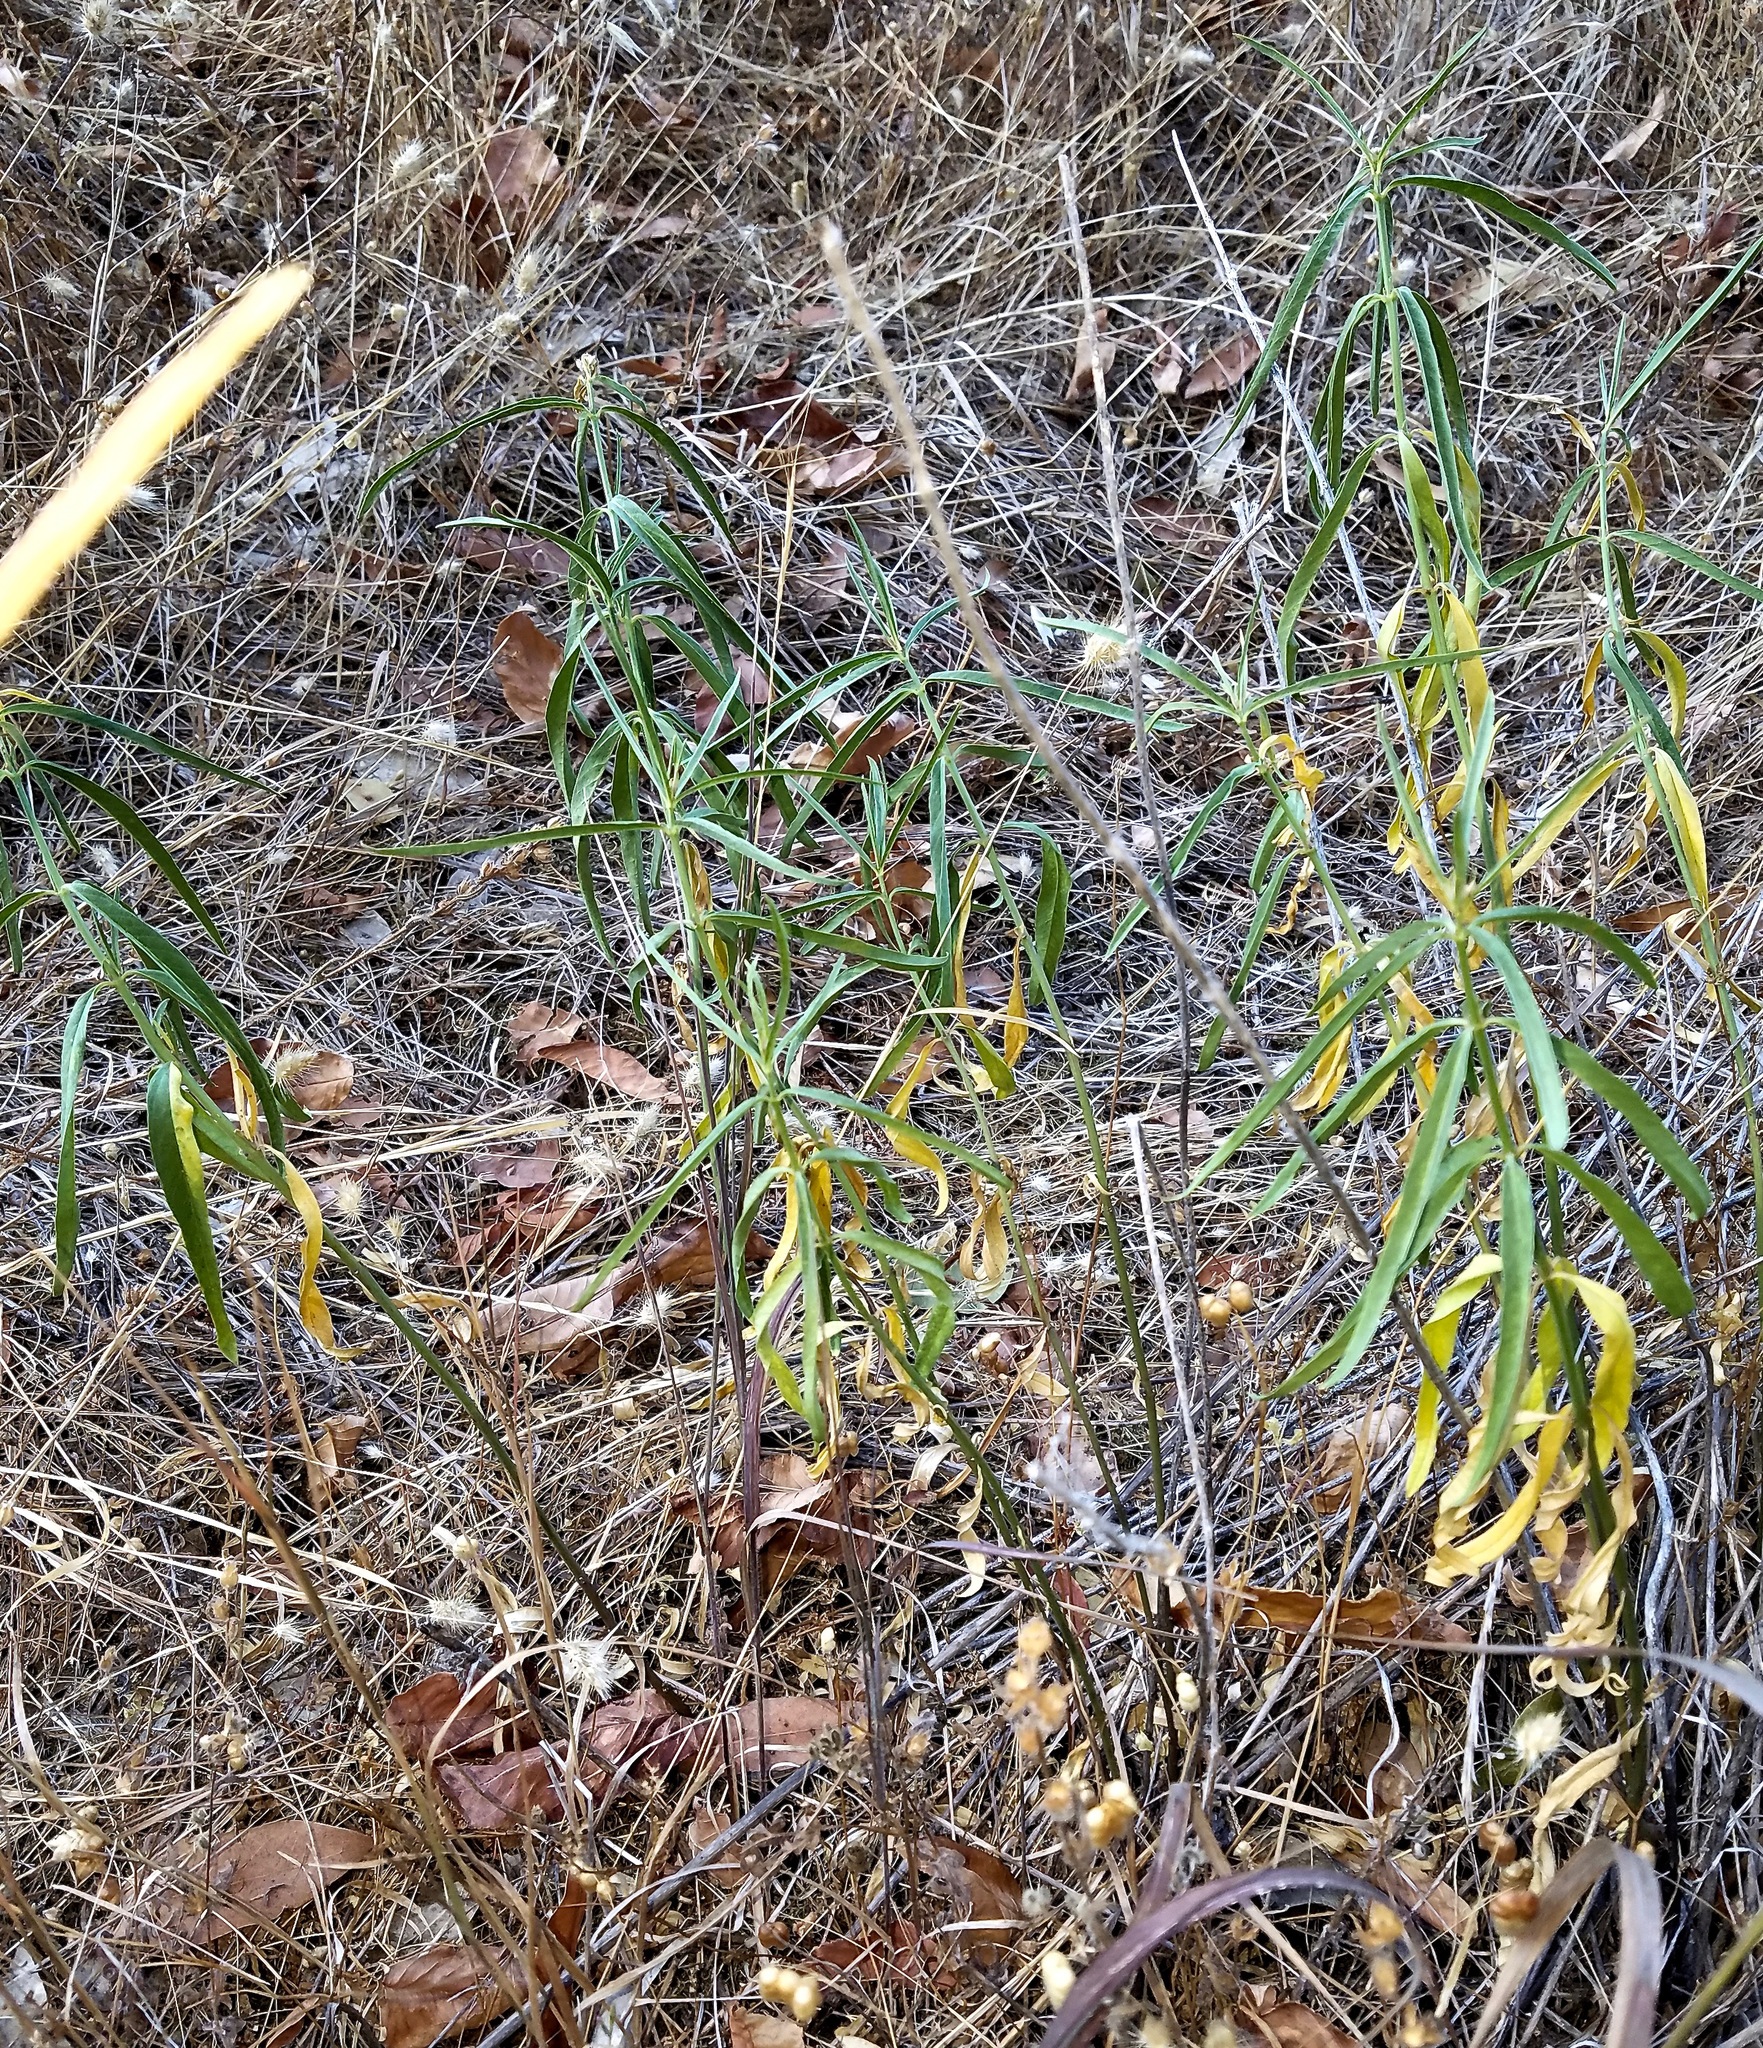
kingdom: Plantae
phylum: Tracheophyta
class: Magnoliopsida
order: Gentianales
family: Apocynaceae
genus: Asclepias
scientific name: Asclepias fascicularis
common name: Mexican milkweed
